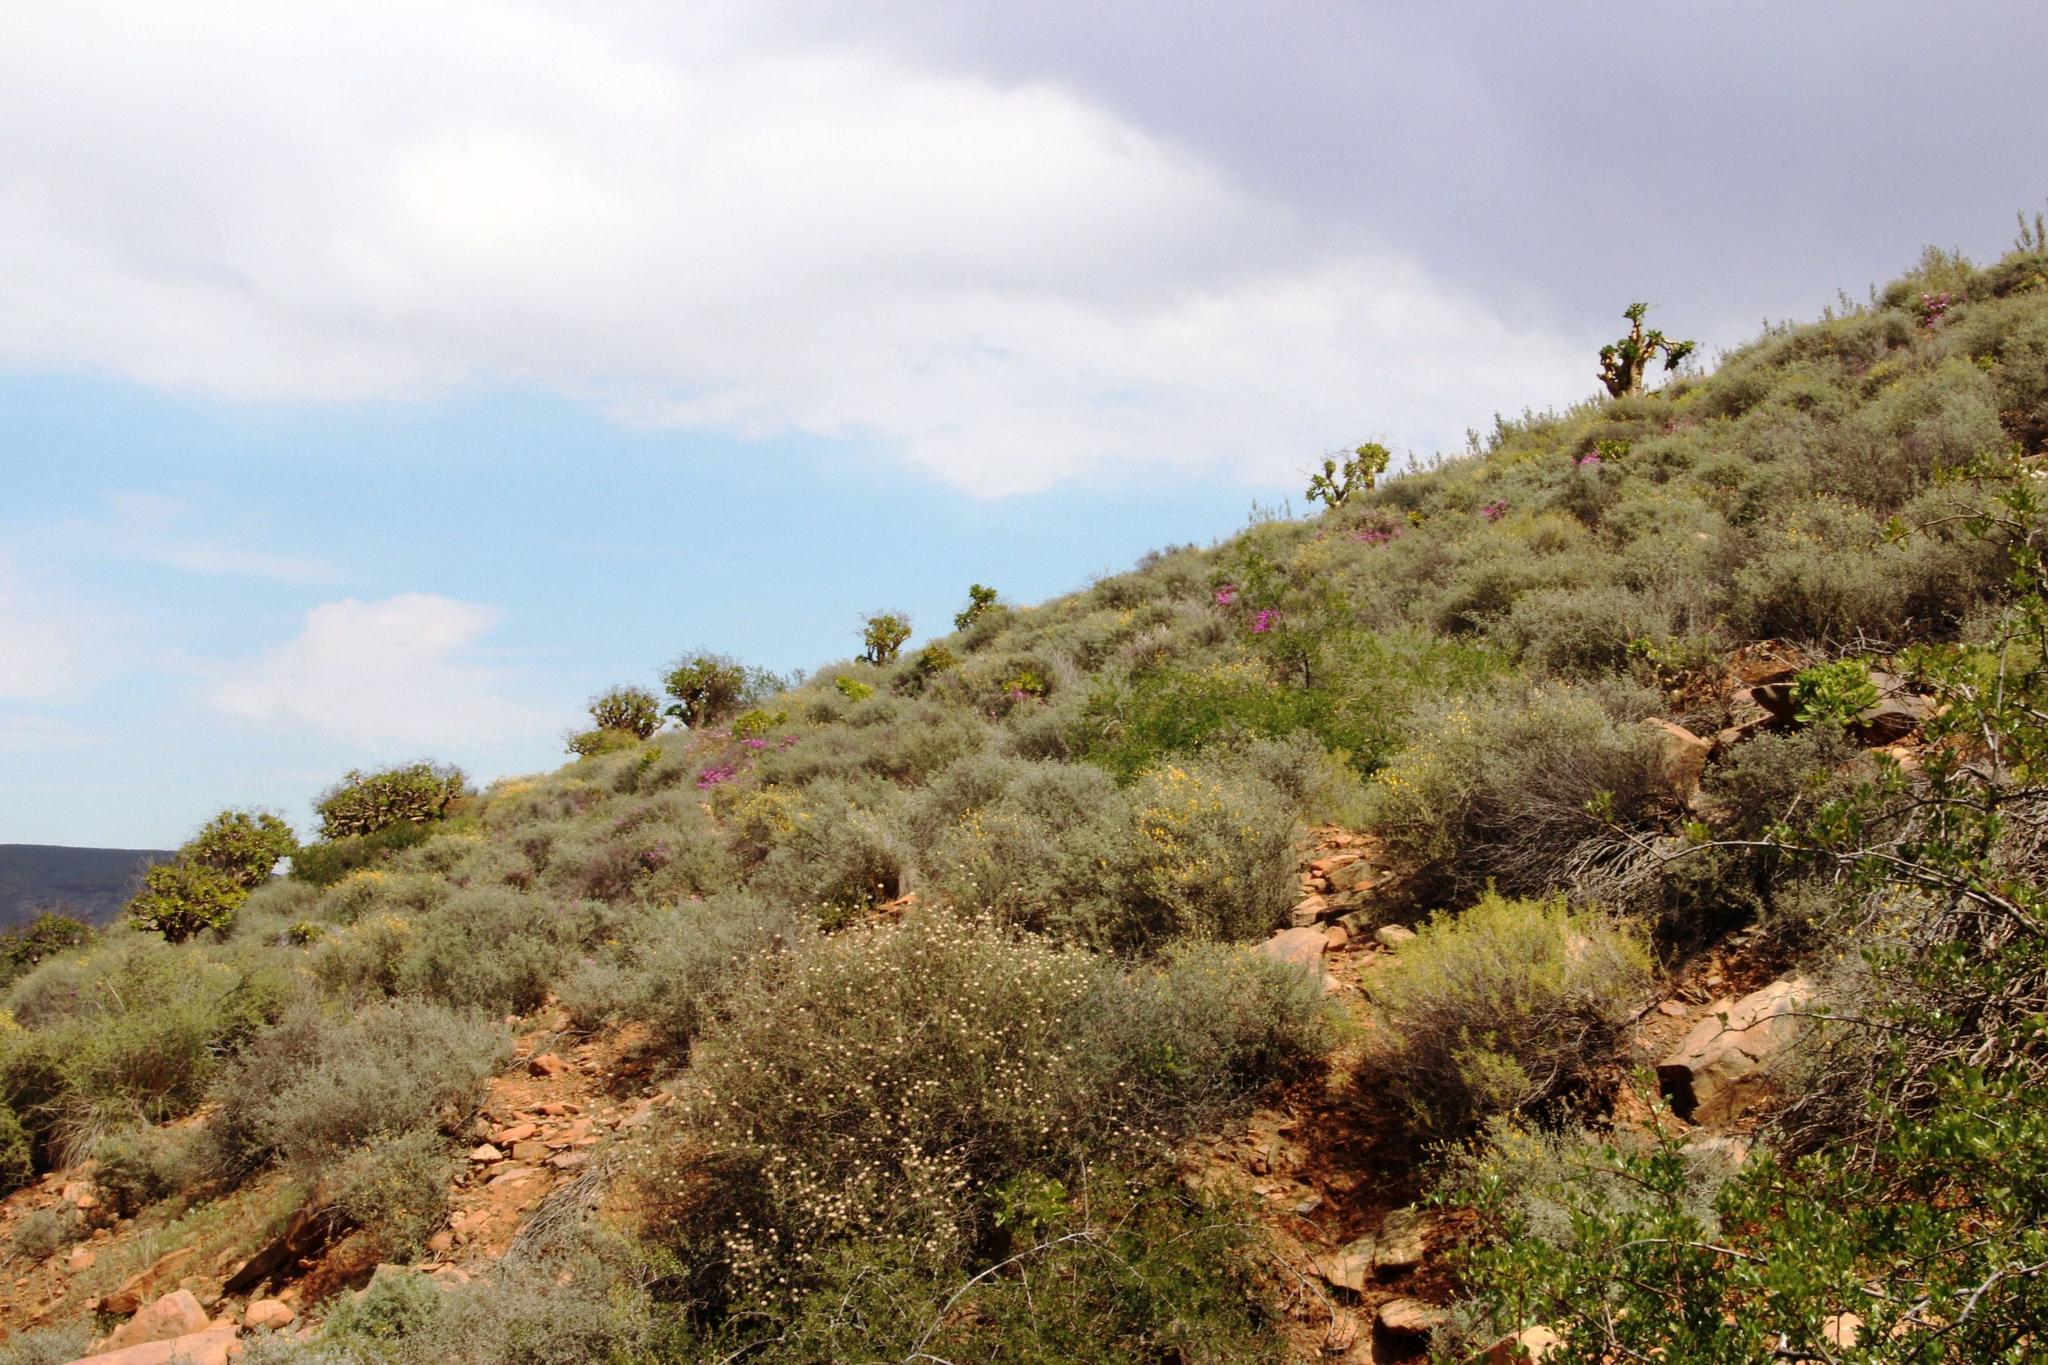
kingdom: Plantae
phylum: Tracheophyta
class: Magnoliopsida
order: Saxifragales
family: Crassulaceae
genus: Tylecodon
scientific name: Tylecodon paniculatus
